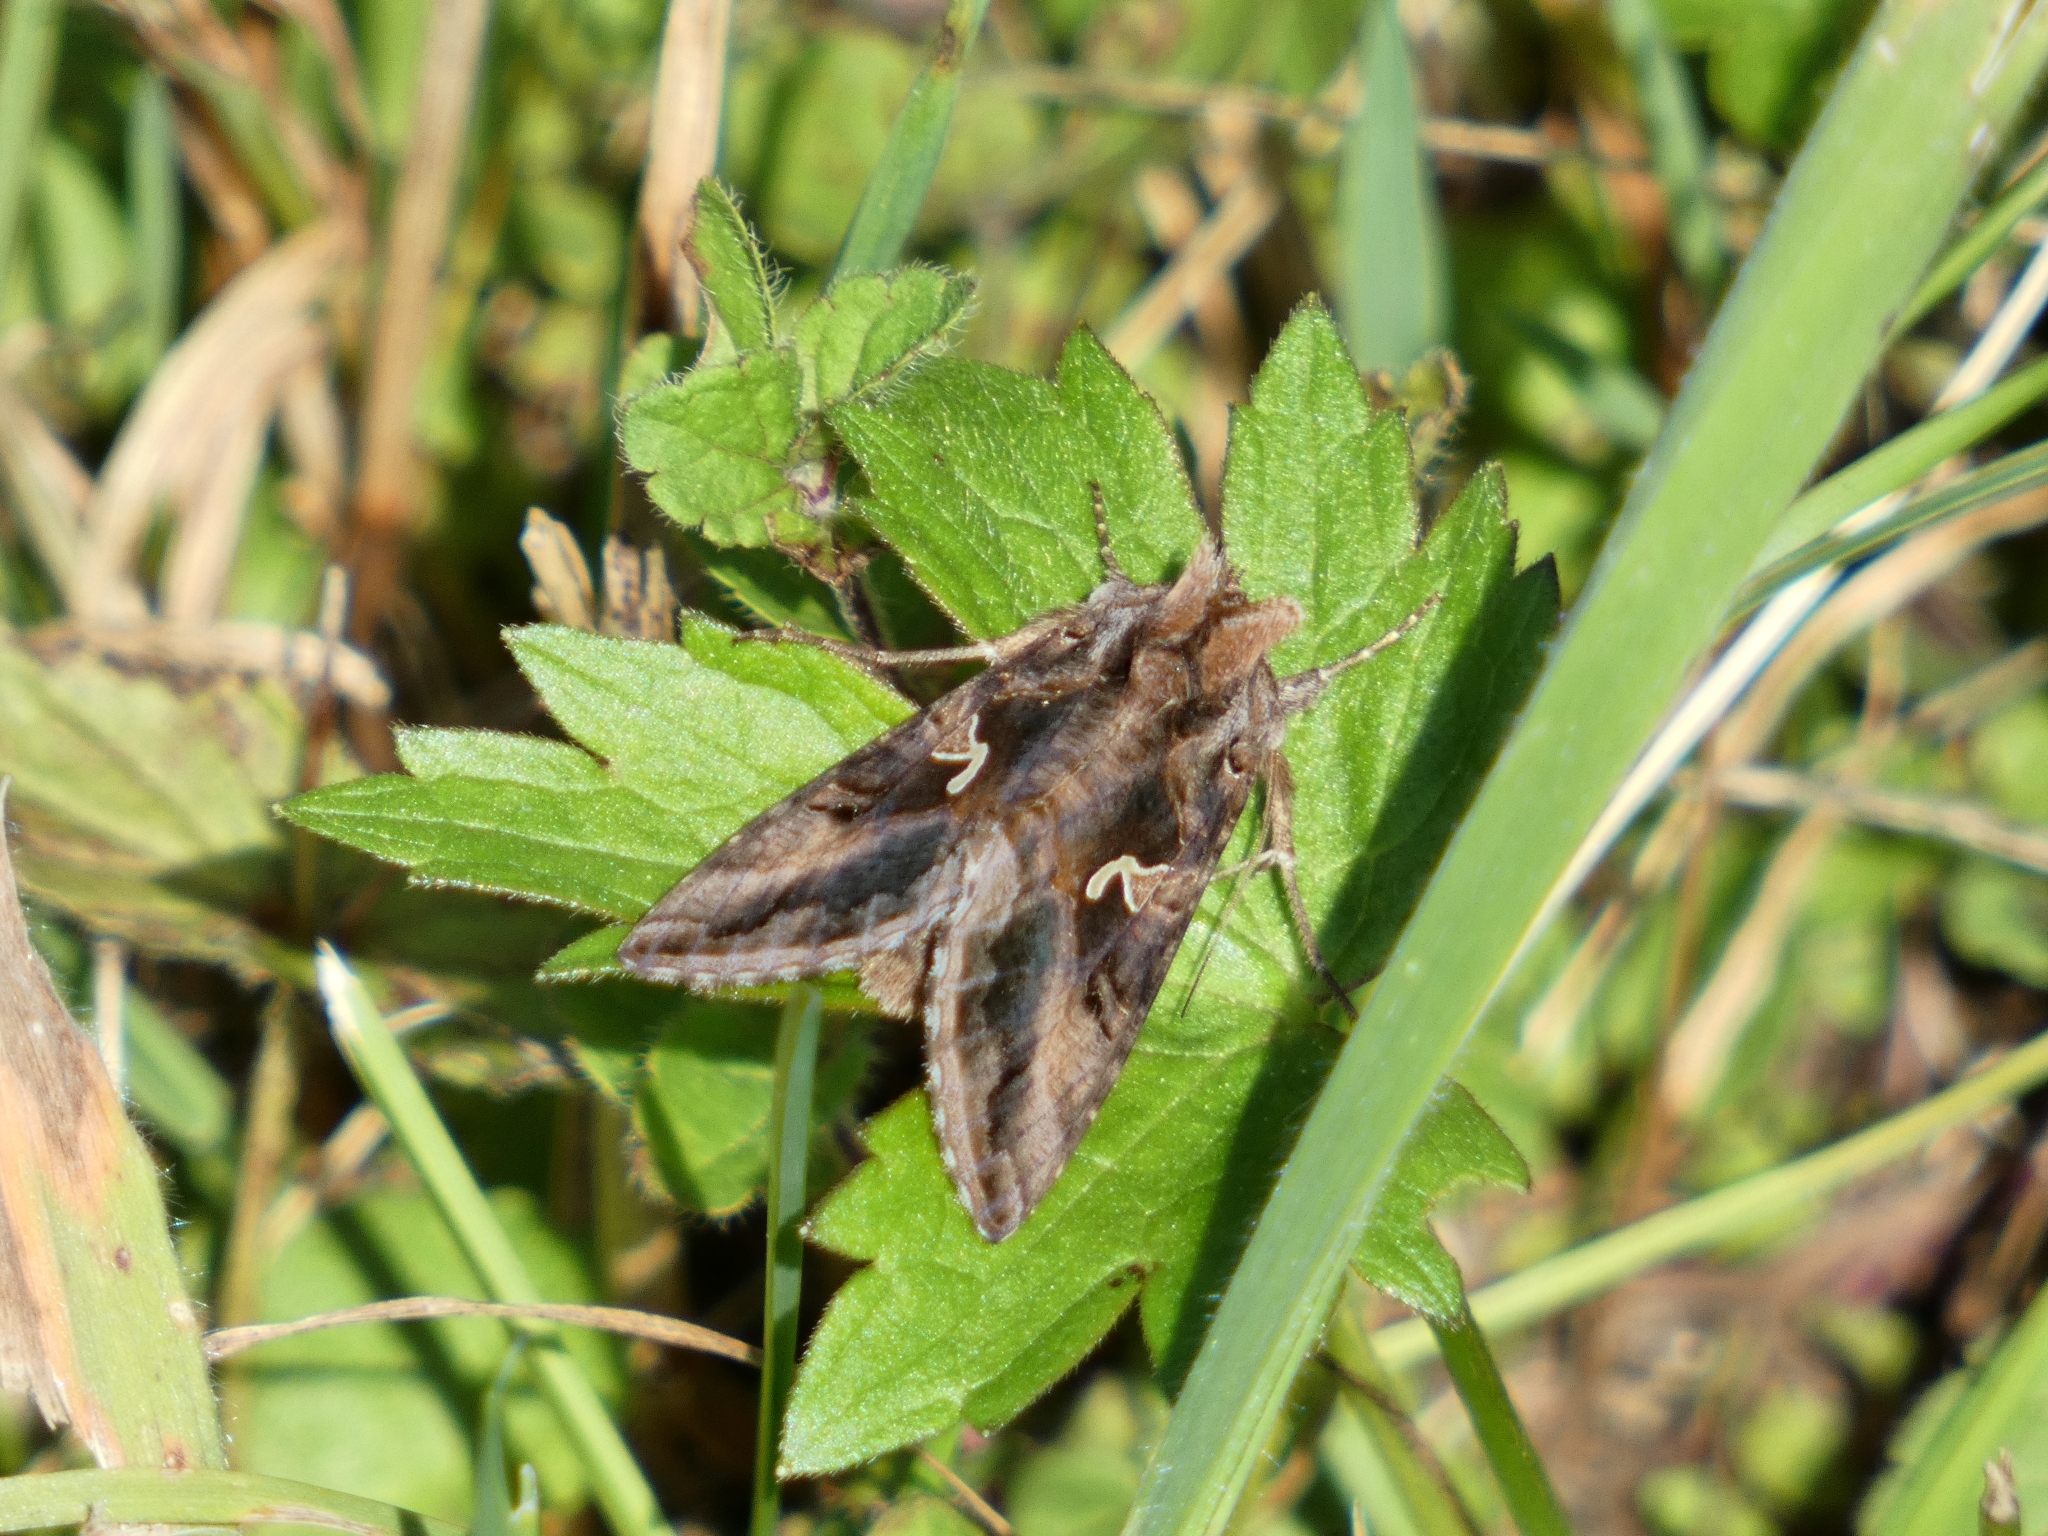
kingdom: Animalia
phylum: Arthropoda
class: Insecta
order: Lepidoptera
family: Noctuidae
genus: Autographa
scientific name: Autographa gamma
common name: Silver y
